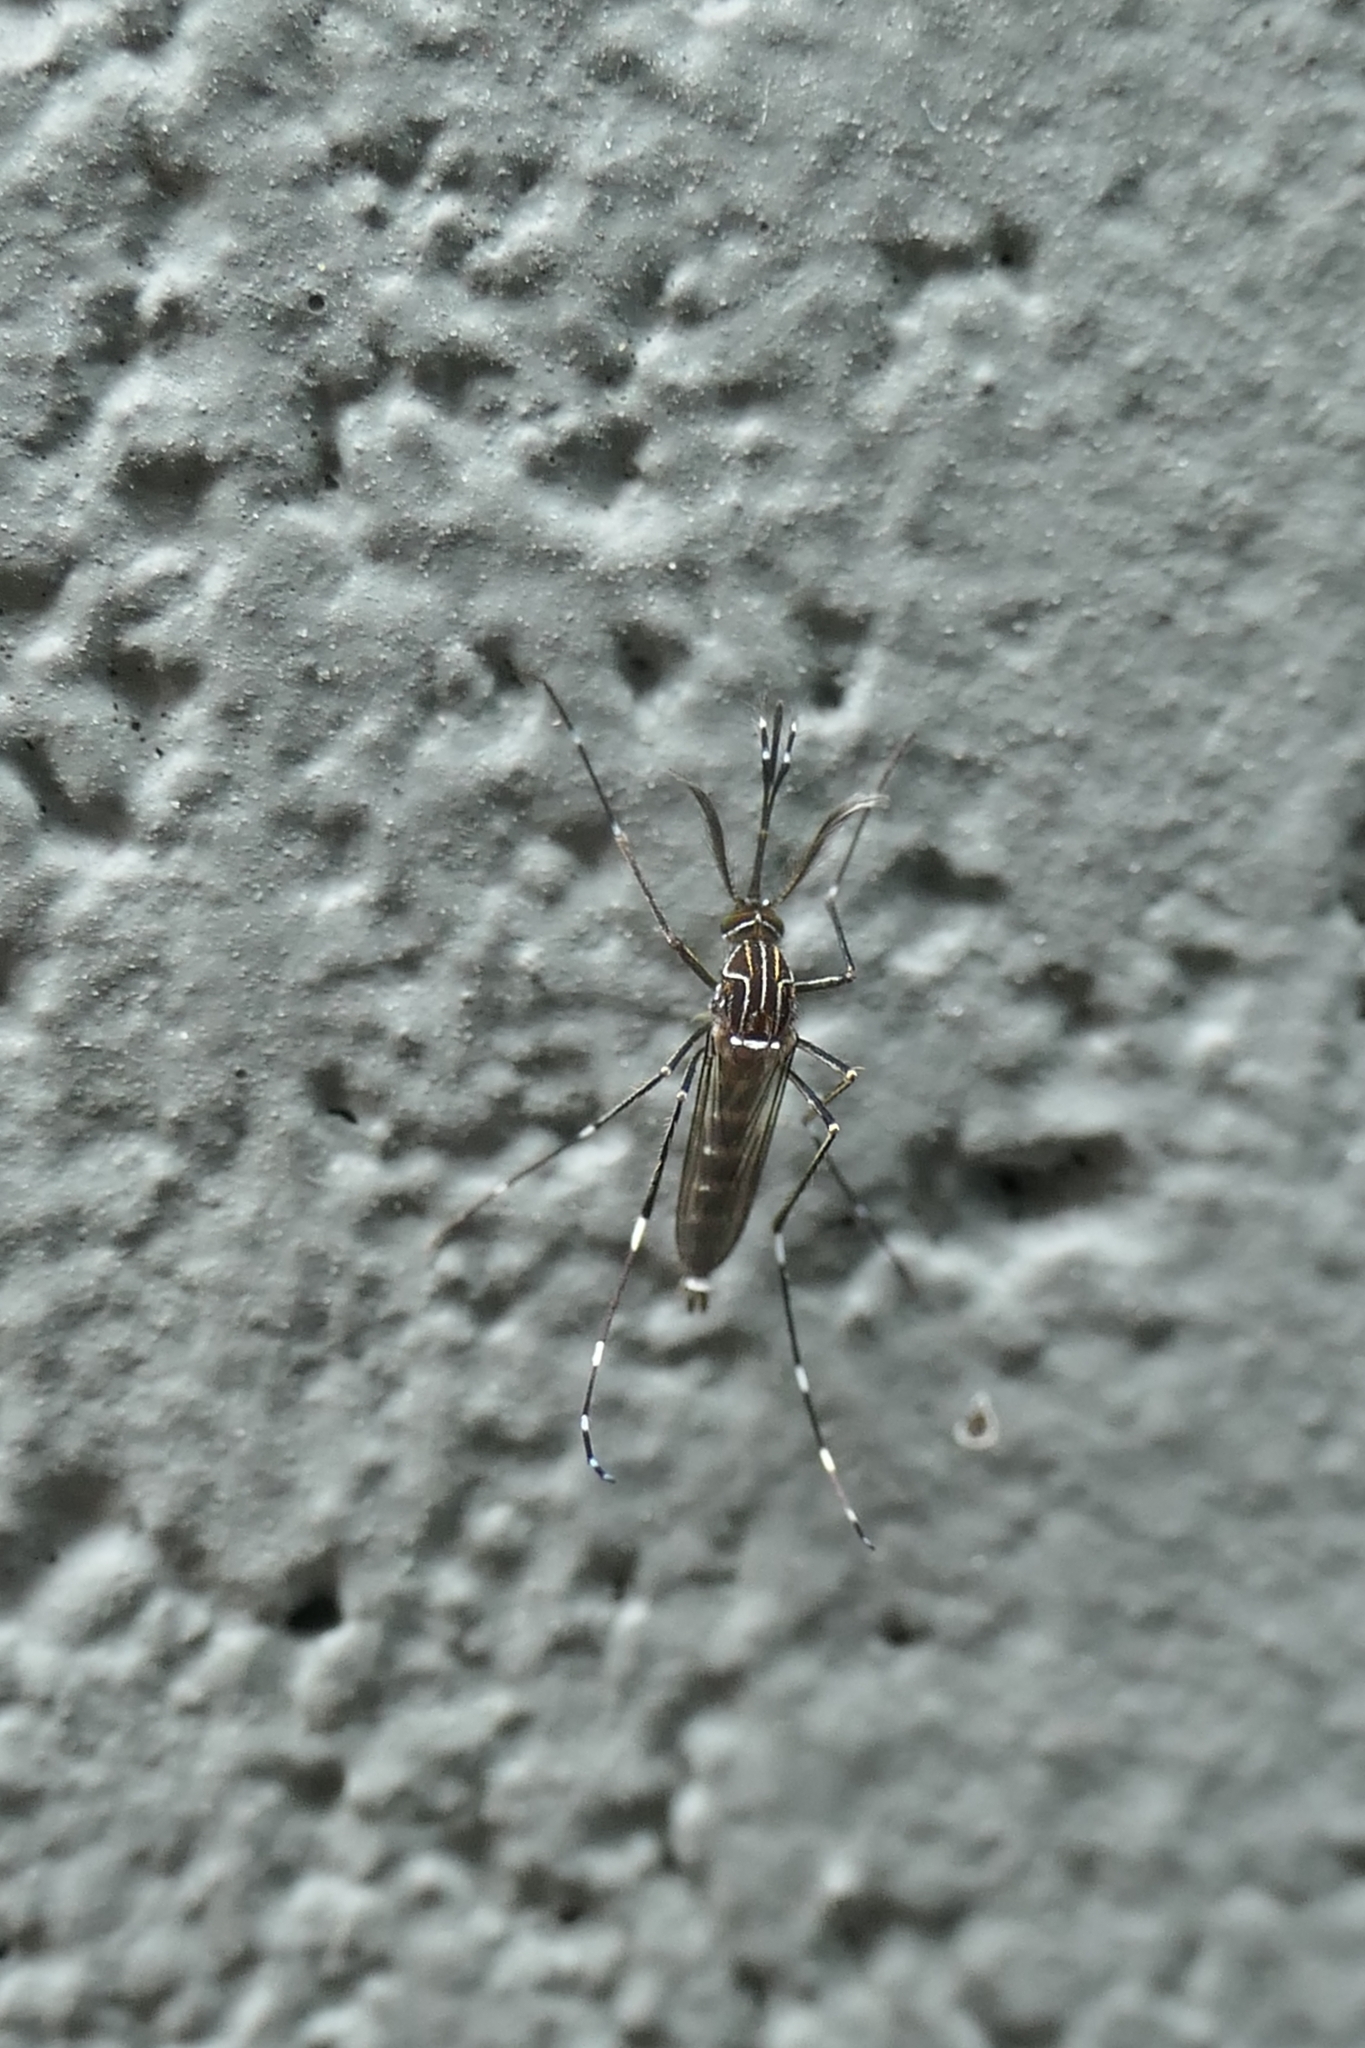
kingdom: Animalia
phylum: Arthropoda
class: Insecta
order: Diptera
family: Culicidae
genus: Aedes
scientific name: Aedes notoscriptus
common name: Australian backyard mosquito
